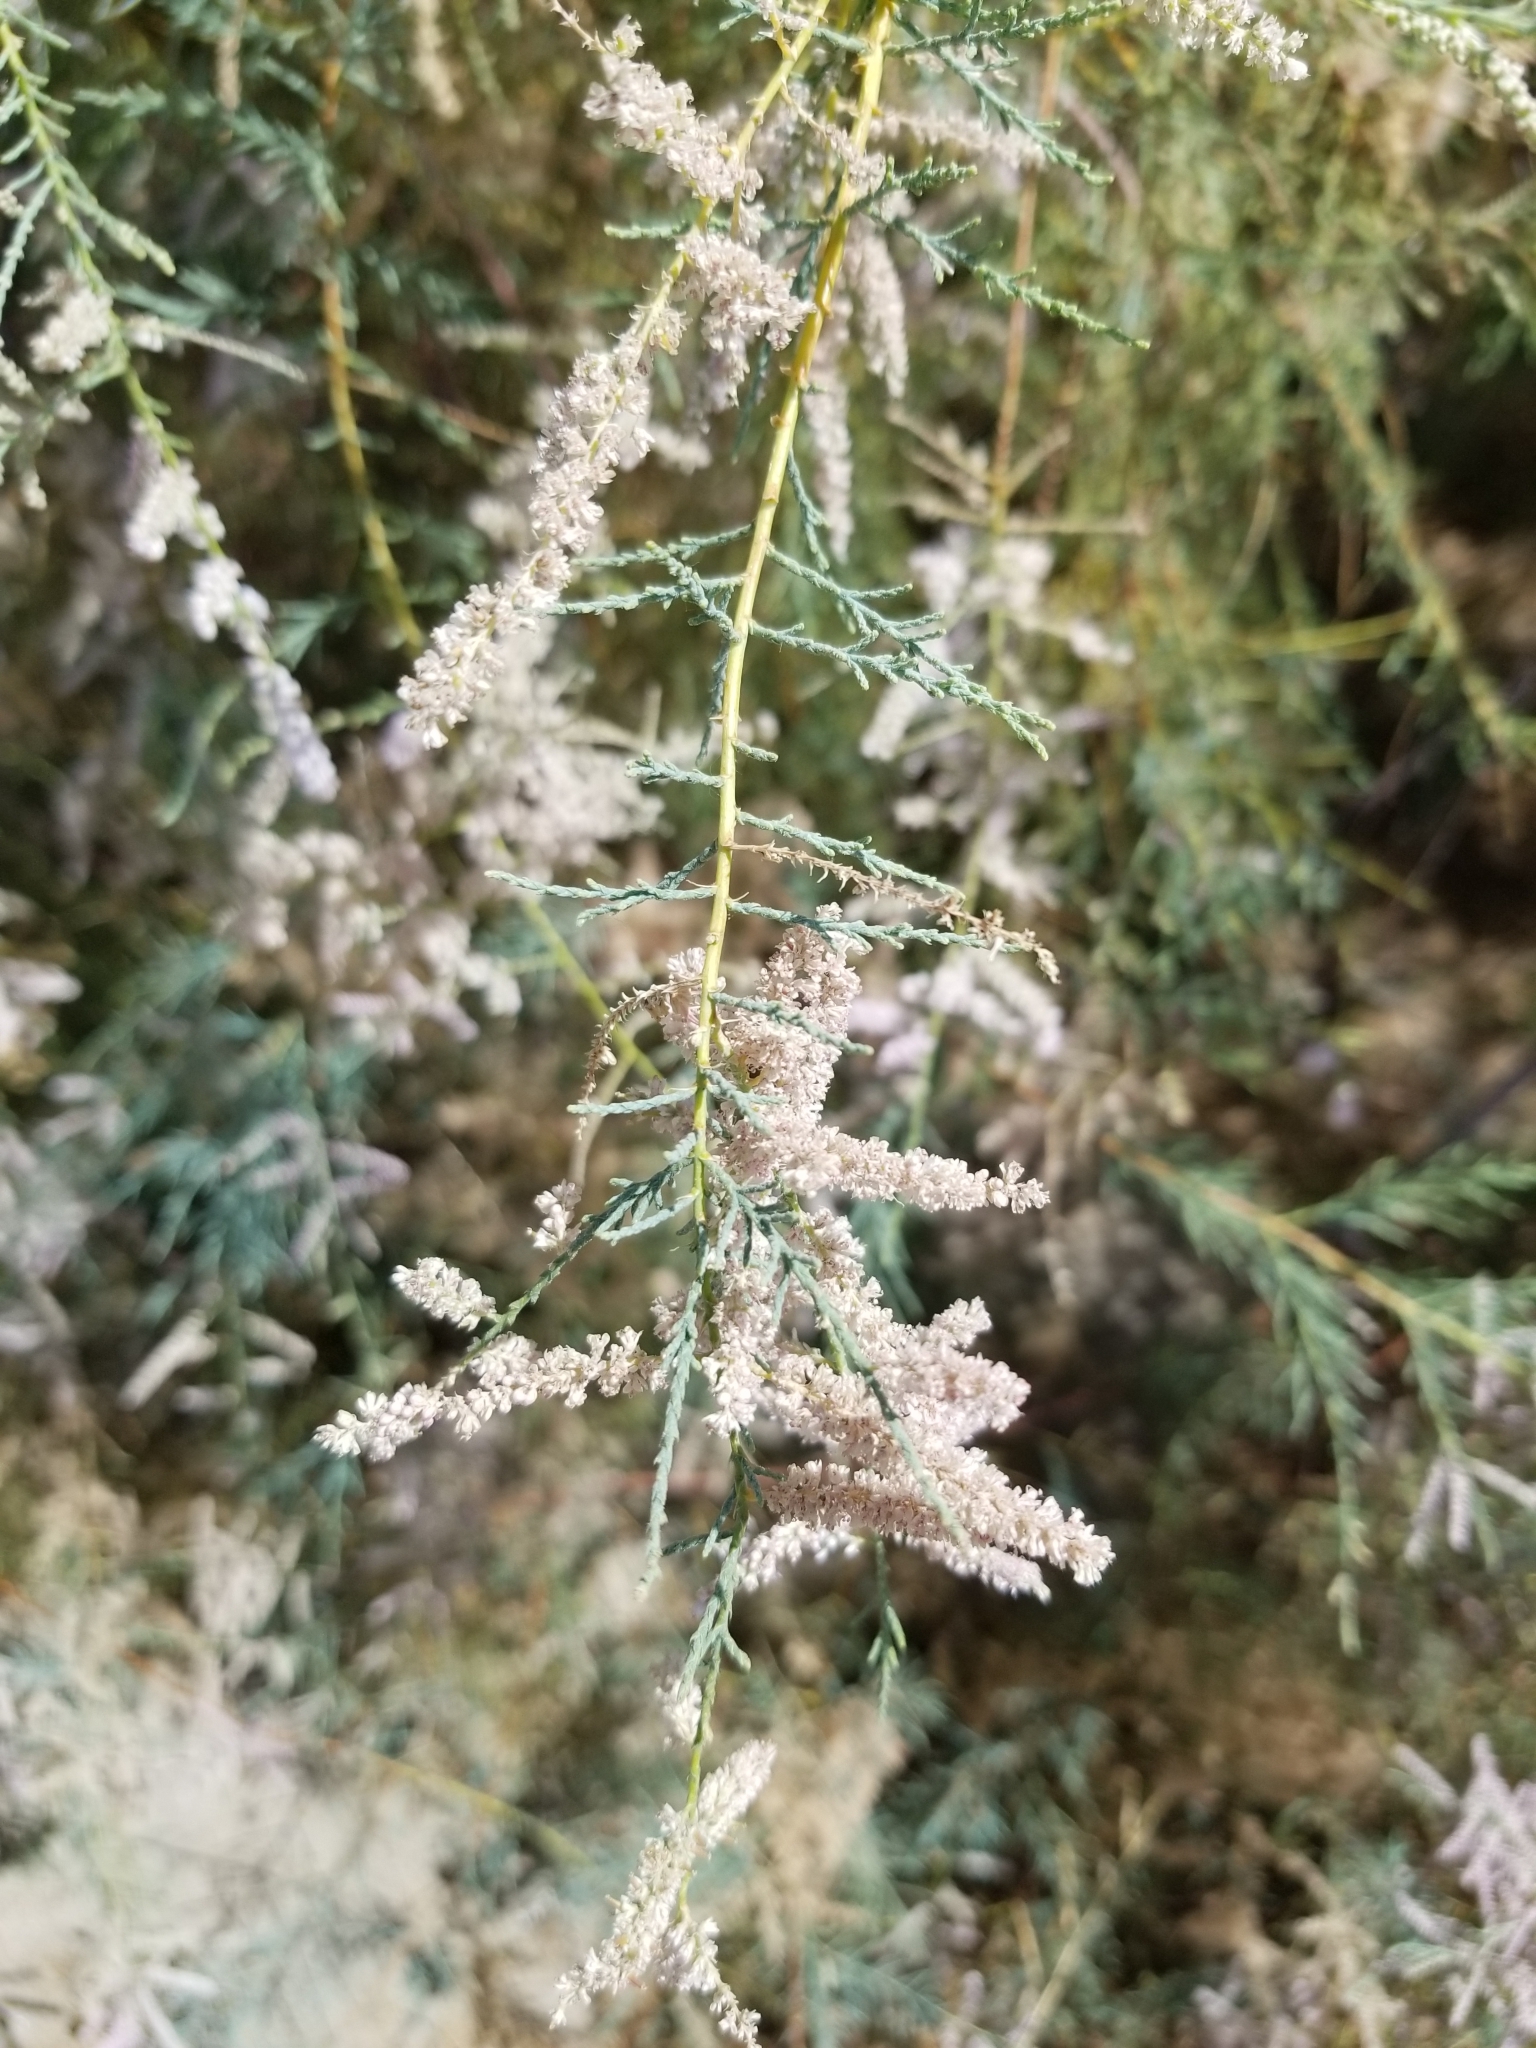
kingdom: Plantae
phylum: Tracheophyta
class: Magnoliopsida
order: Caryophyllales
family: Tamaricaceae
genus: Tamarix
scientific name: Tamarix ramosissima
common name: Pink tamarisk
